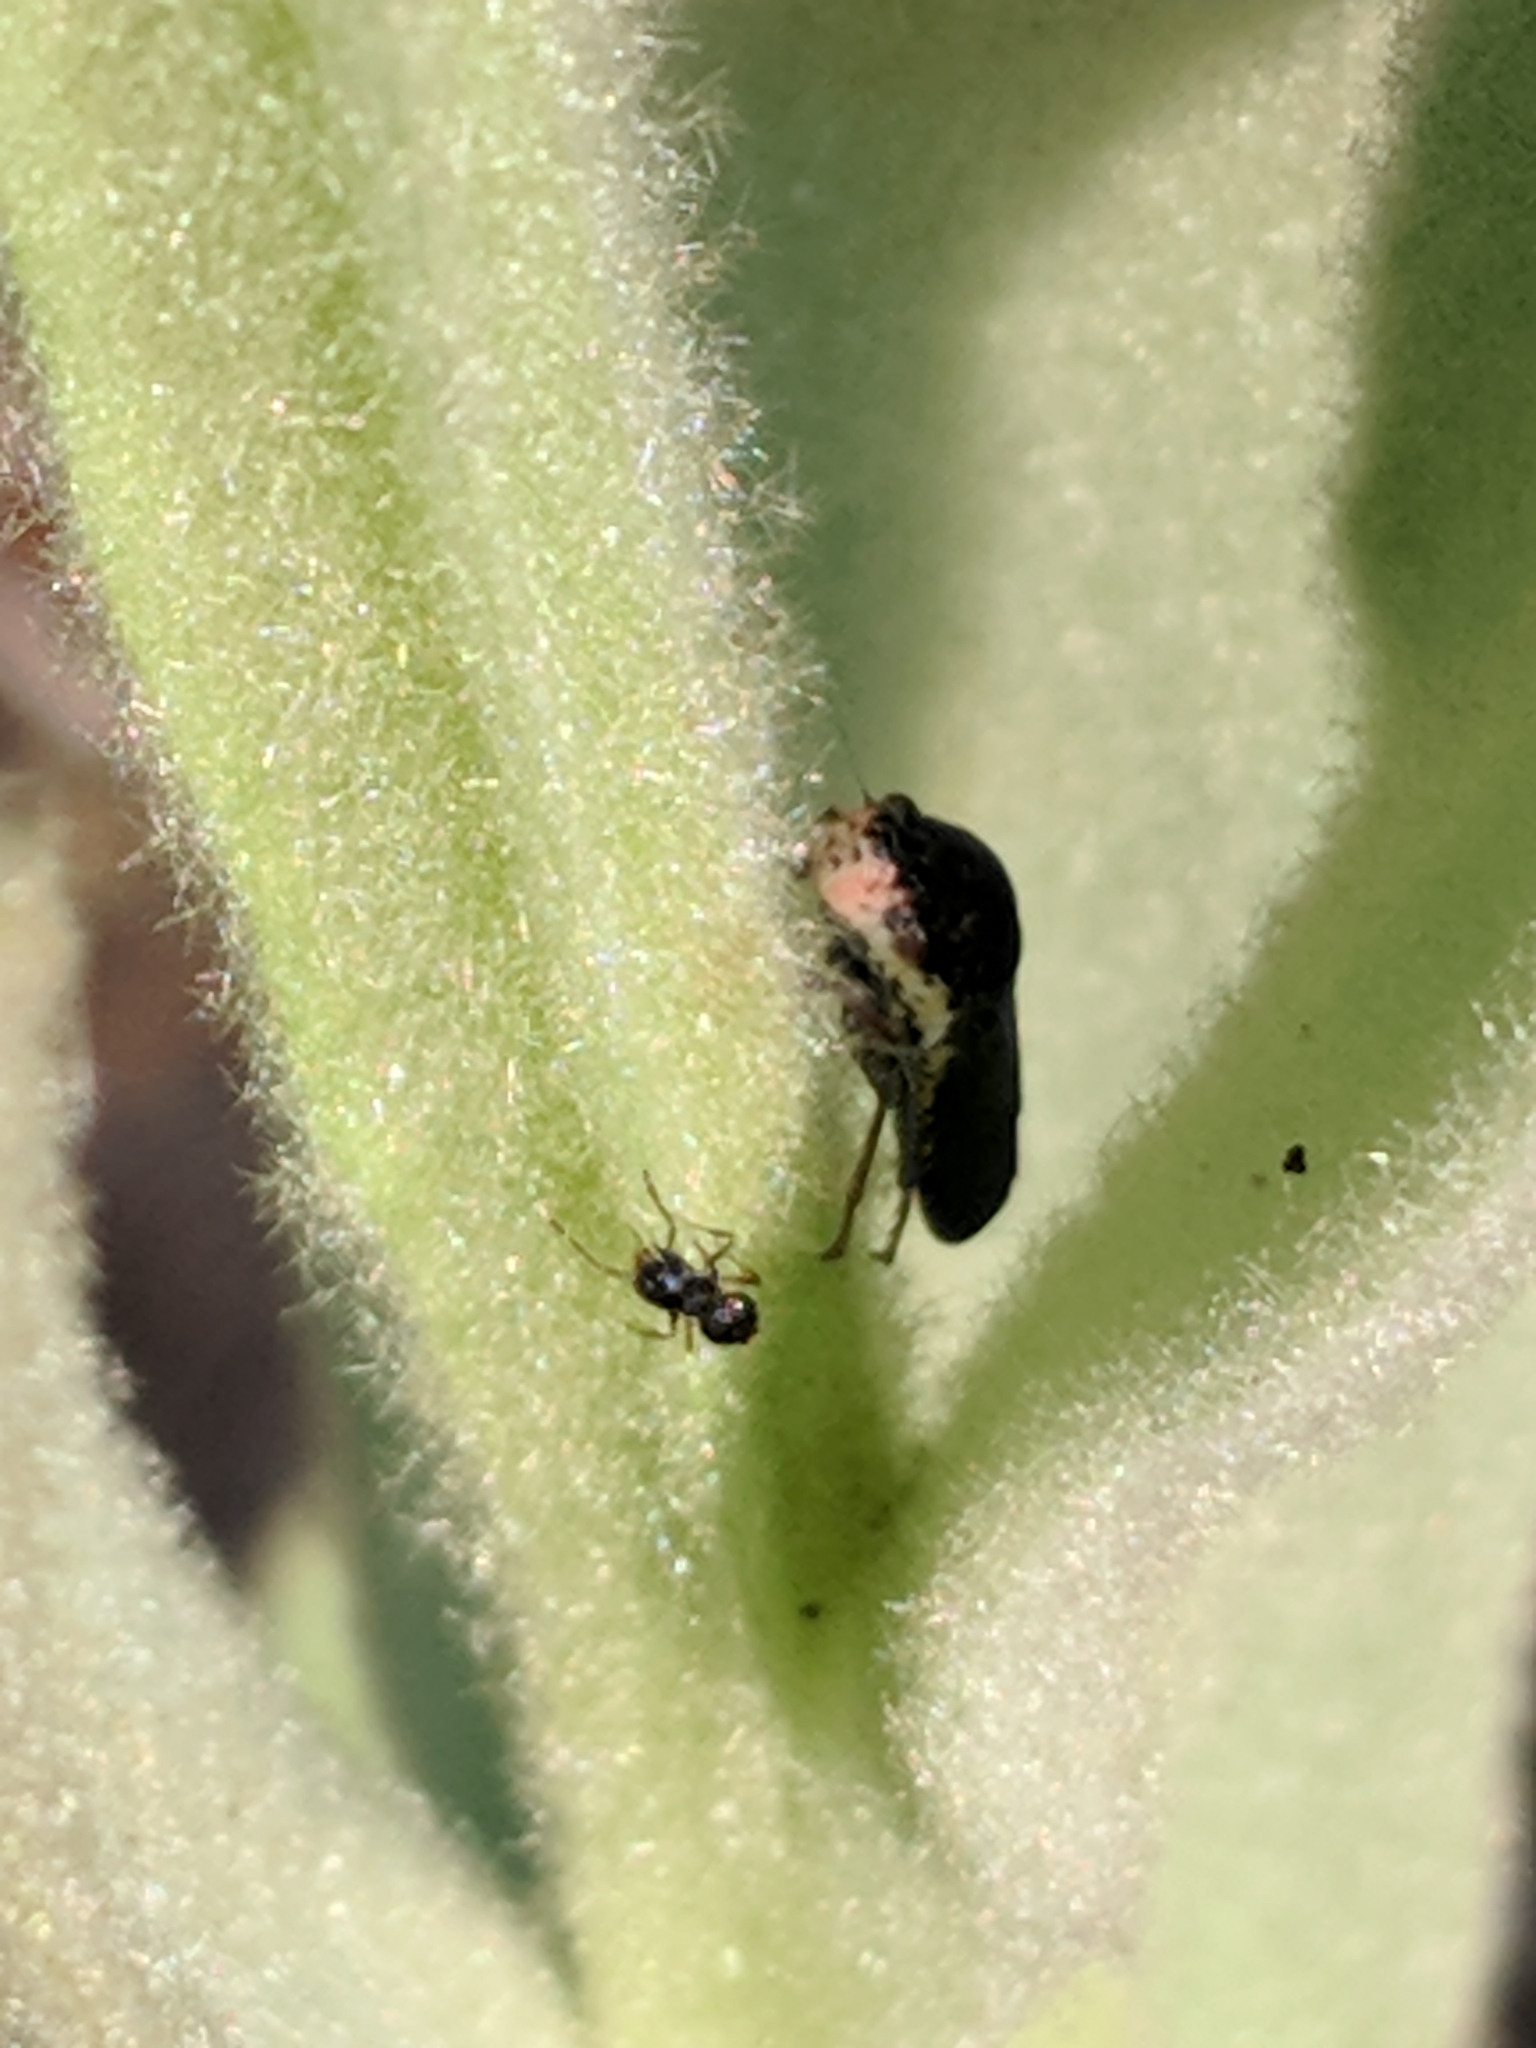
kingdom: Animalia
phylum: Arthropoda
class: Insecta
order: Hemiptera
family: Cicadellidae
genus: Paraulacizes
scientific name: Paraulacizes irrorata
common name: Speckled sharpshooter
